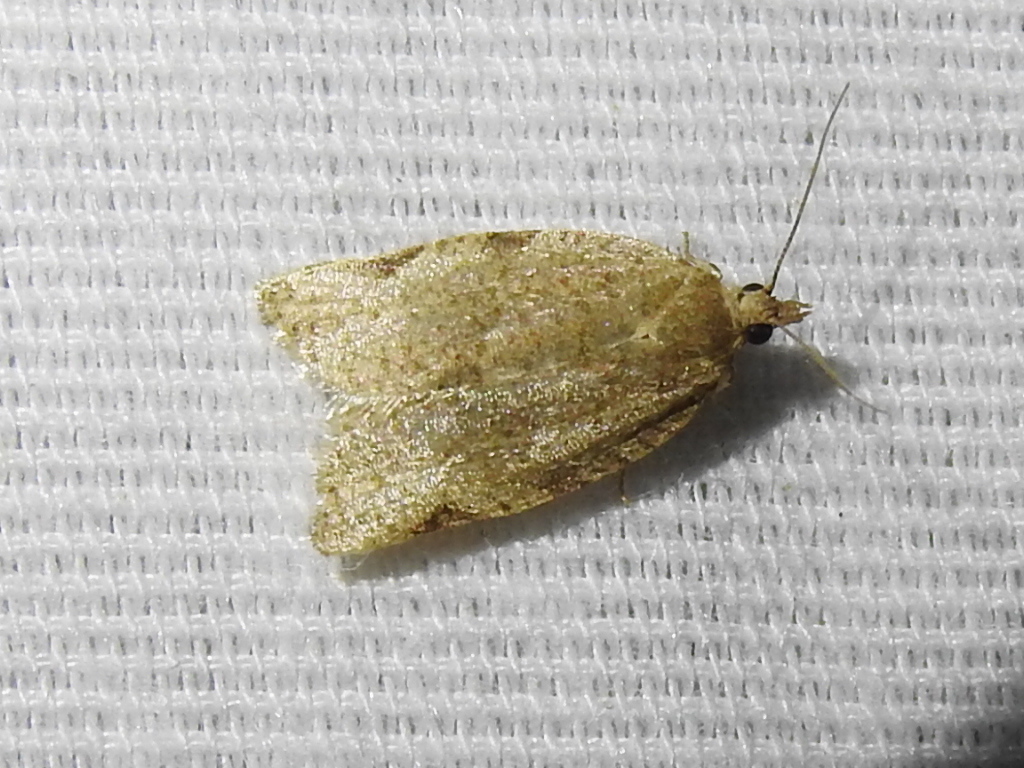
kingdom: Animalia
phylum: Arthropoda
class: Insecta
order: Lepidoptera
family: Tortricidae
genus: Clepsis
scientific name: Clepsis virescana
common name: Greenish apple moth
